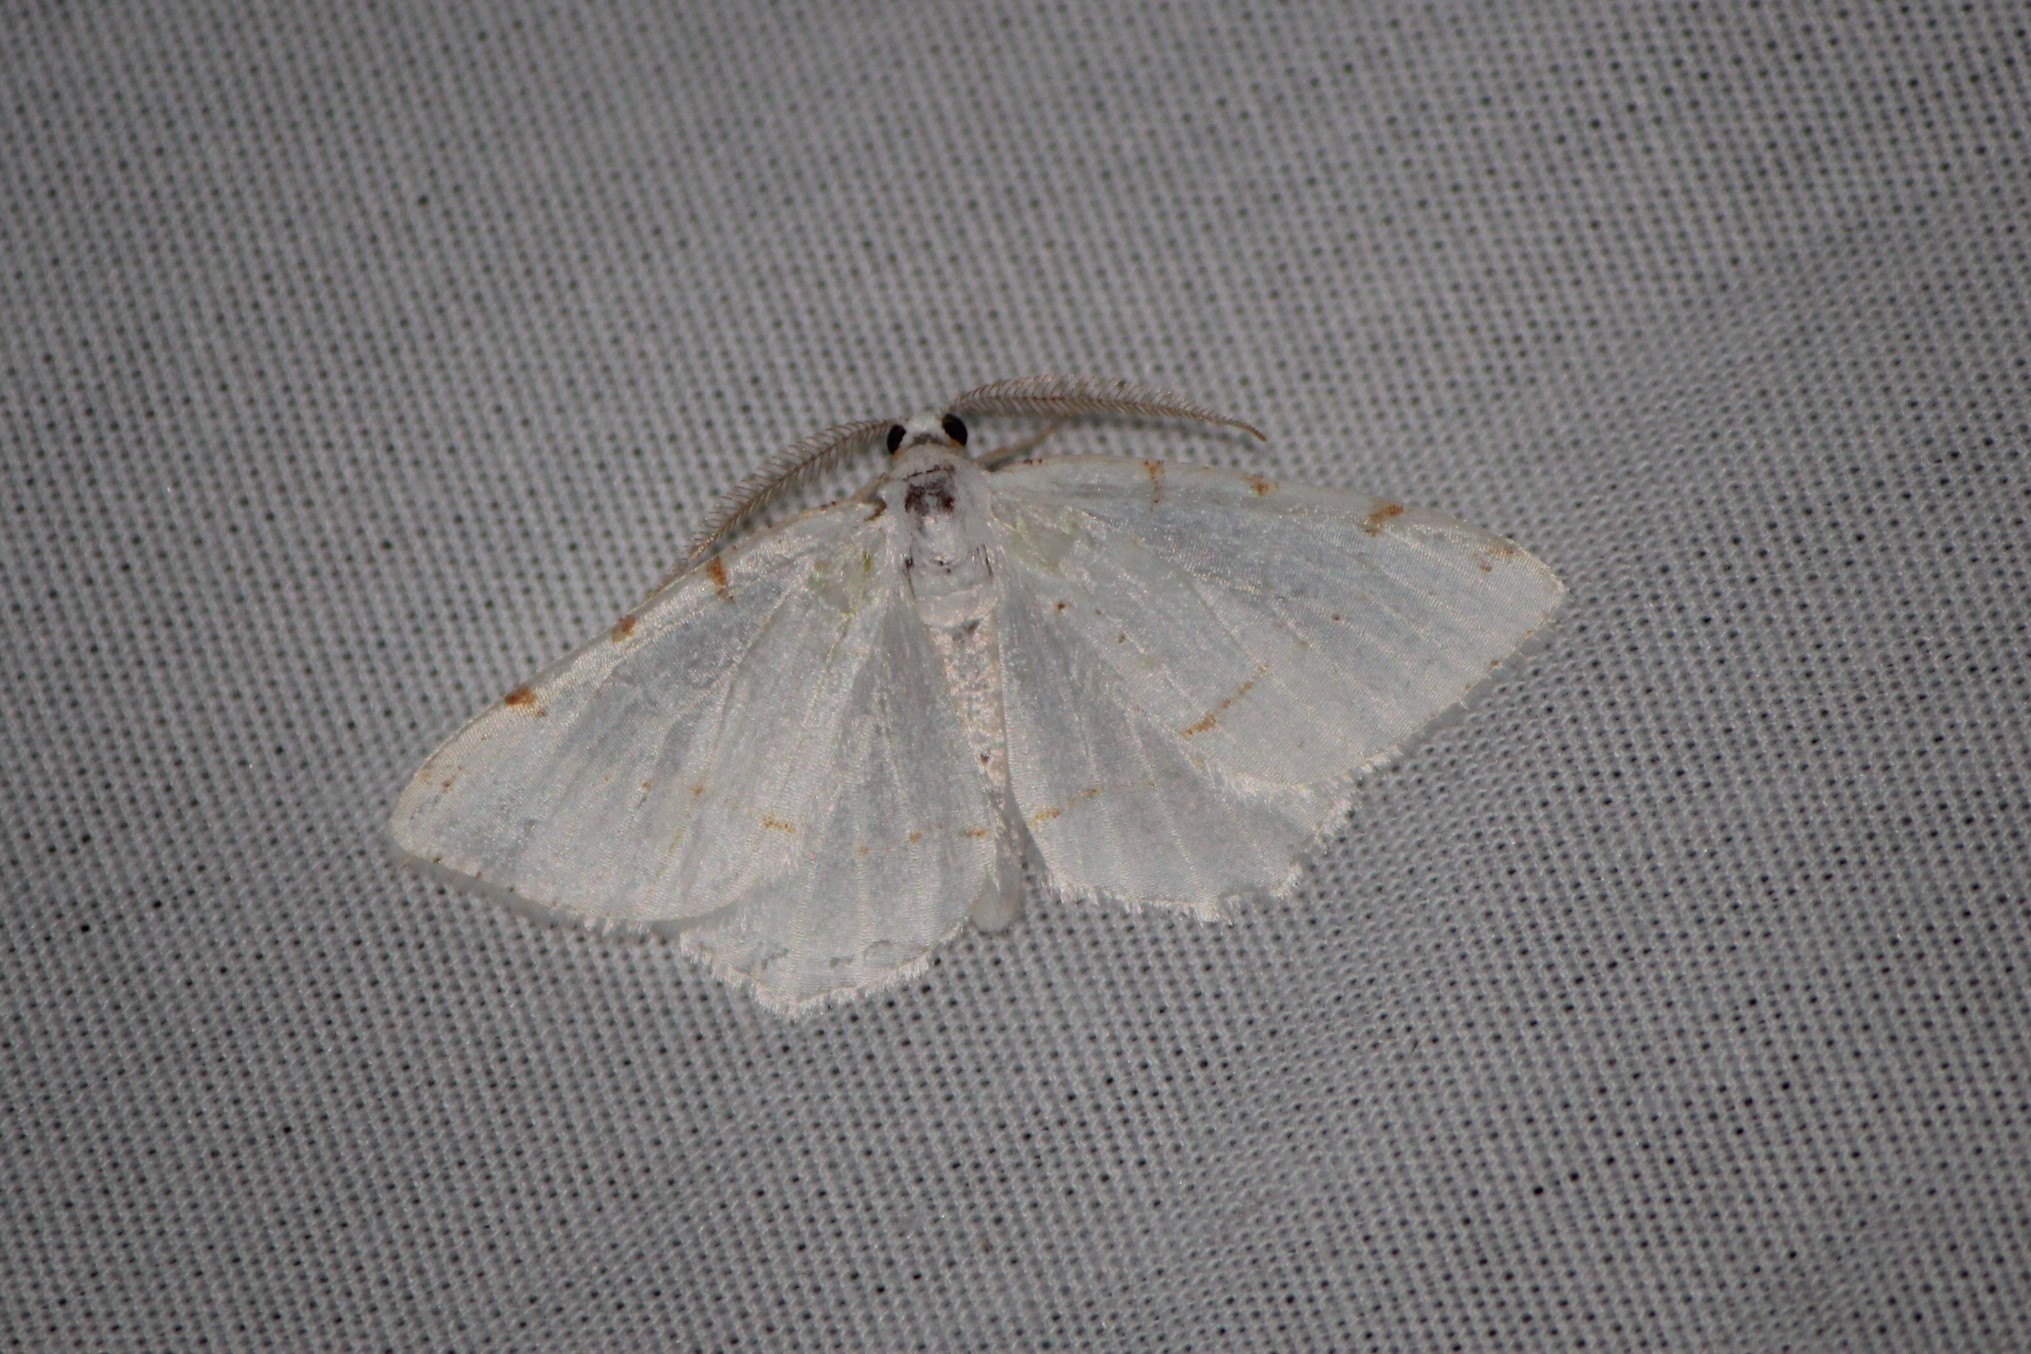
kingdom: Animalia
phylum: Arthropoda
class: Insecta
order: Lepidoptera
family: Geometridae
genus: Macaria
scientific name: Macaria pustularia
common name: Lesser maple spanworm moth
